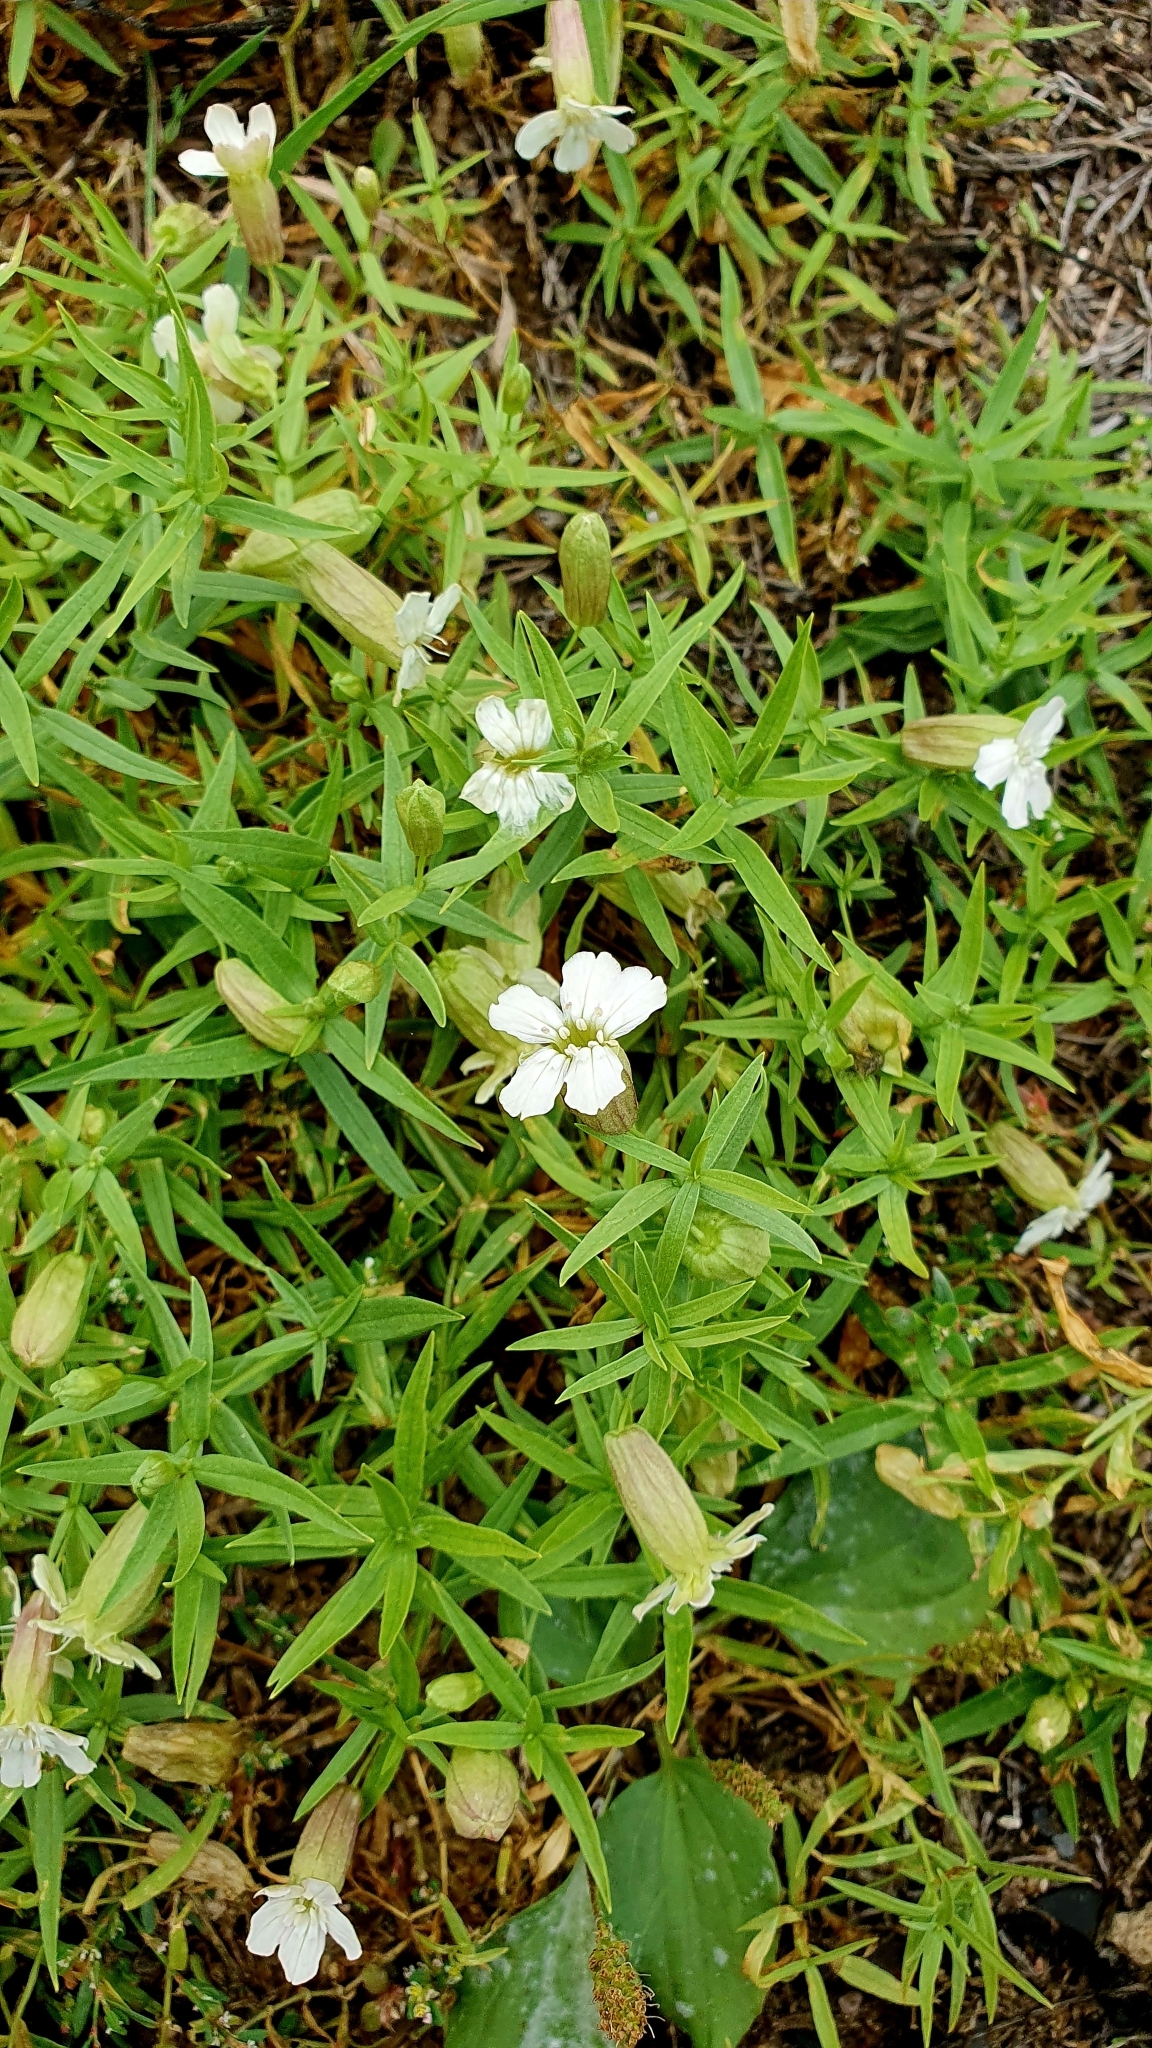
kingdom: Plantae
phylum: Tracheophyta
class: Magnoliopsida
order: Caryophyllales
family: Caryophyllaceae
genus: Silene
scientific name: Silene procumbens
